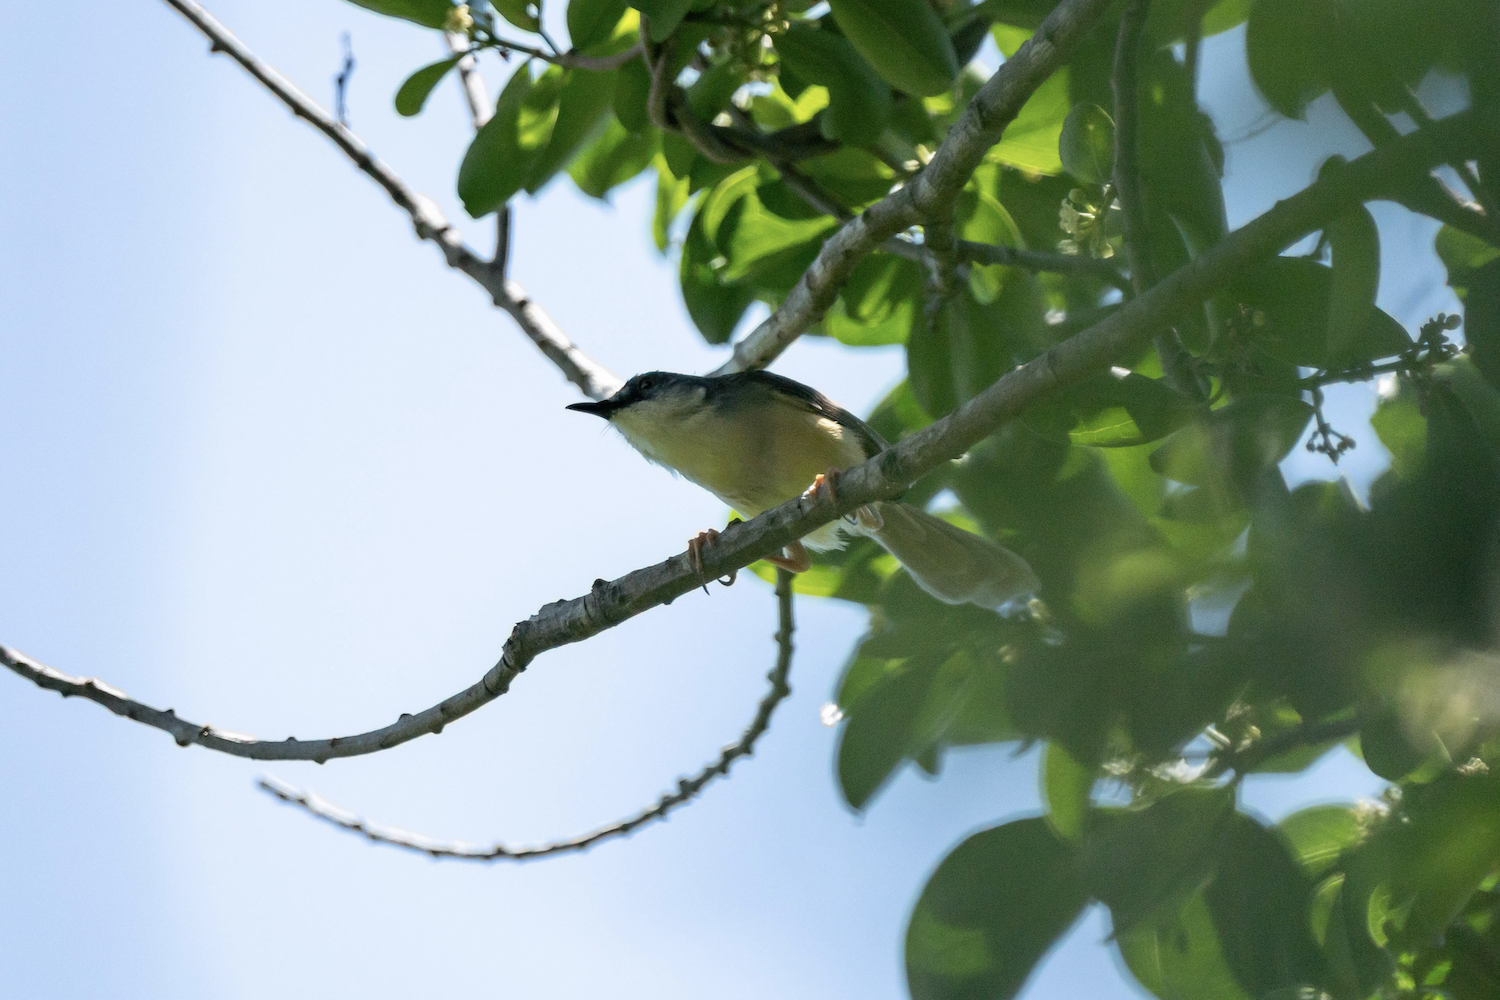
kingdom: Animalia
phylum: Chordata
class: Aves
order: Passeriformes
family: Cisticolidae
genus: Prinia
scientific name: Prinia flaviventris
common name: Yellow-bellied prinia
